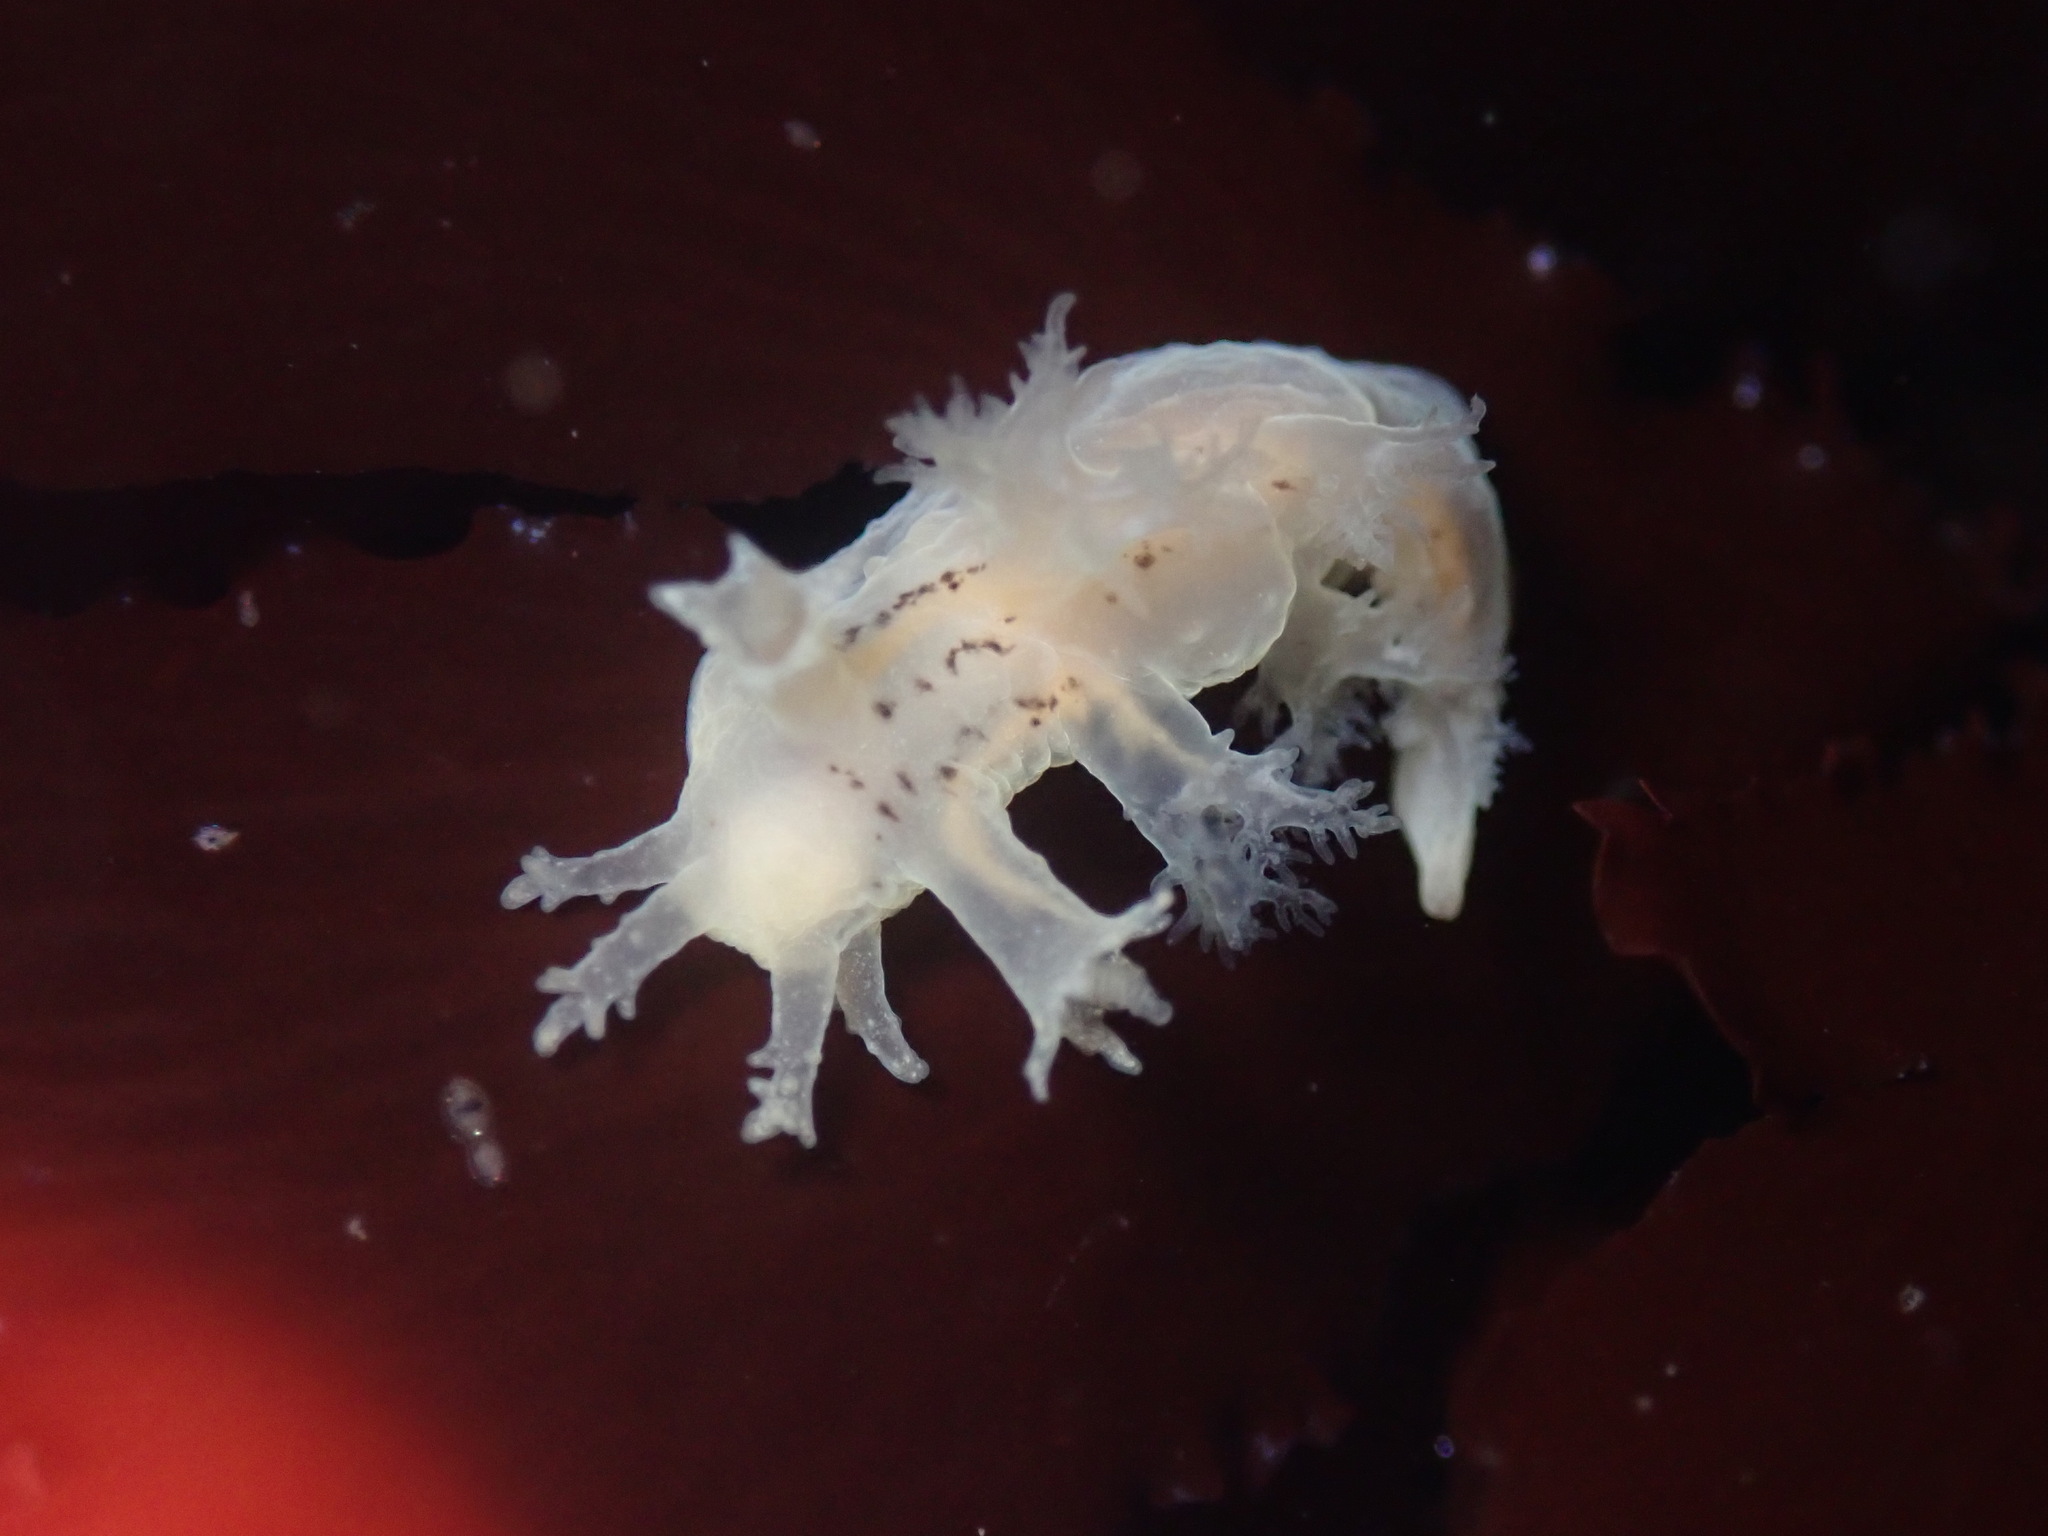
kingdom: Animalia
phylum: Mollusca
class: Gastropoda
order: Nudibranchia
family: Dendronotidae
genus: Dendronotus
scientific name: Dendronotus subramosus
